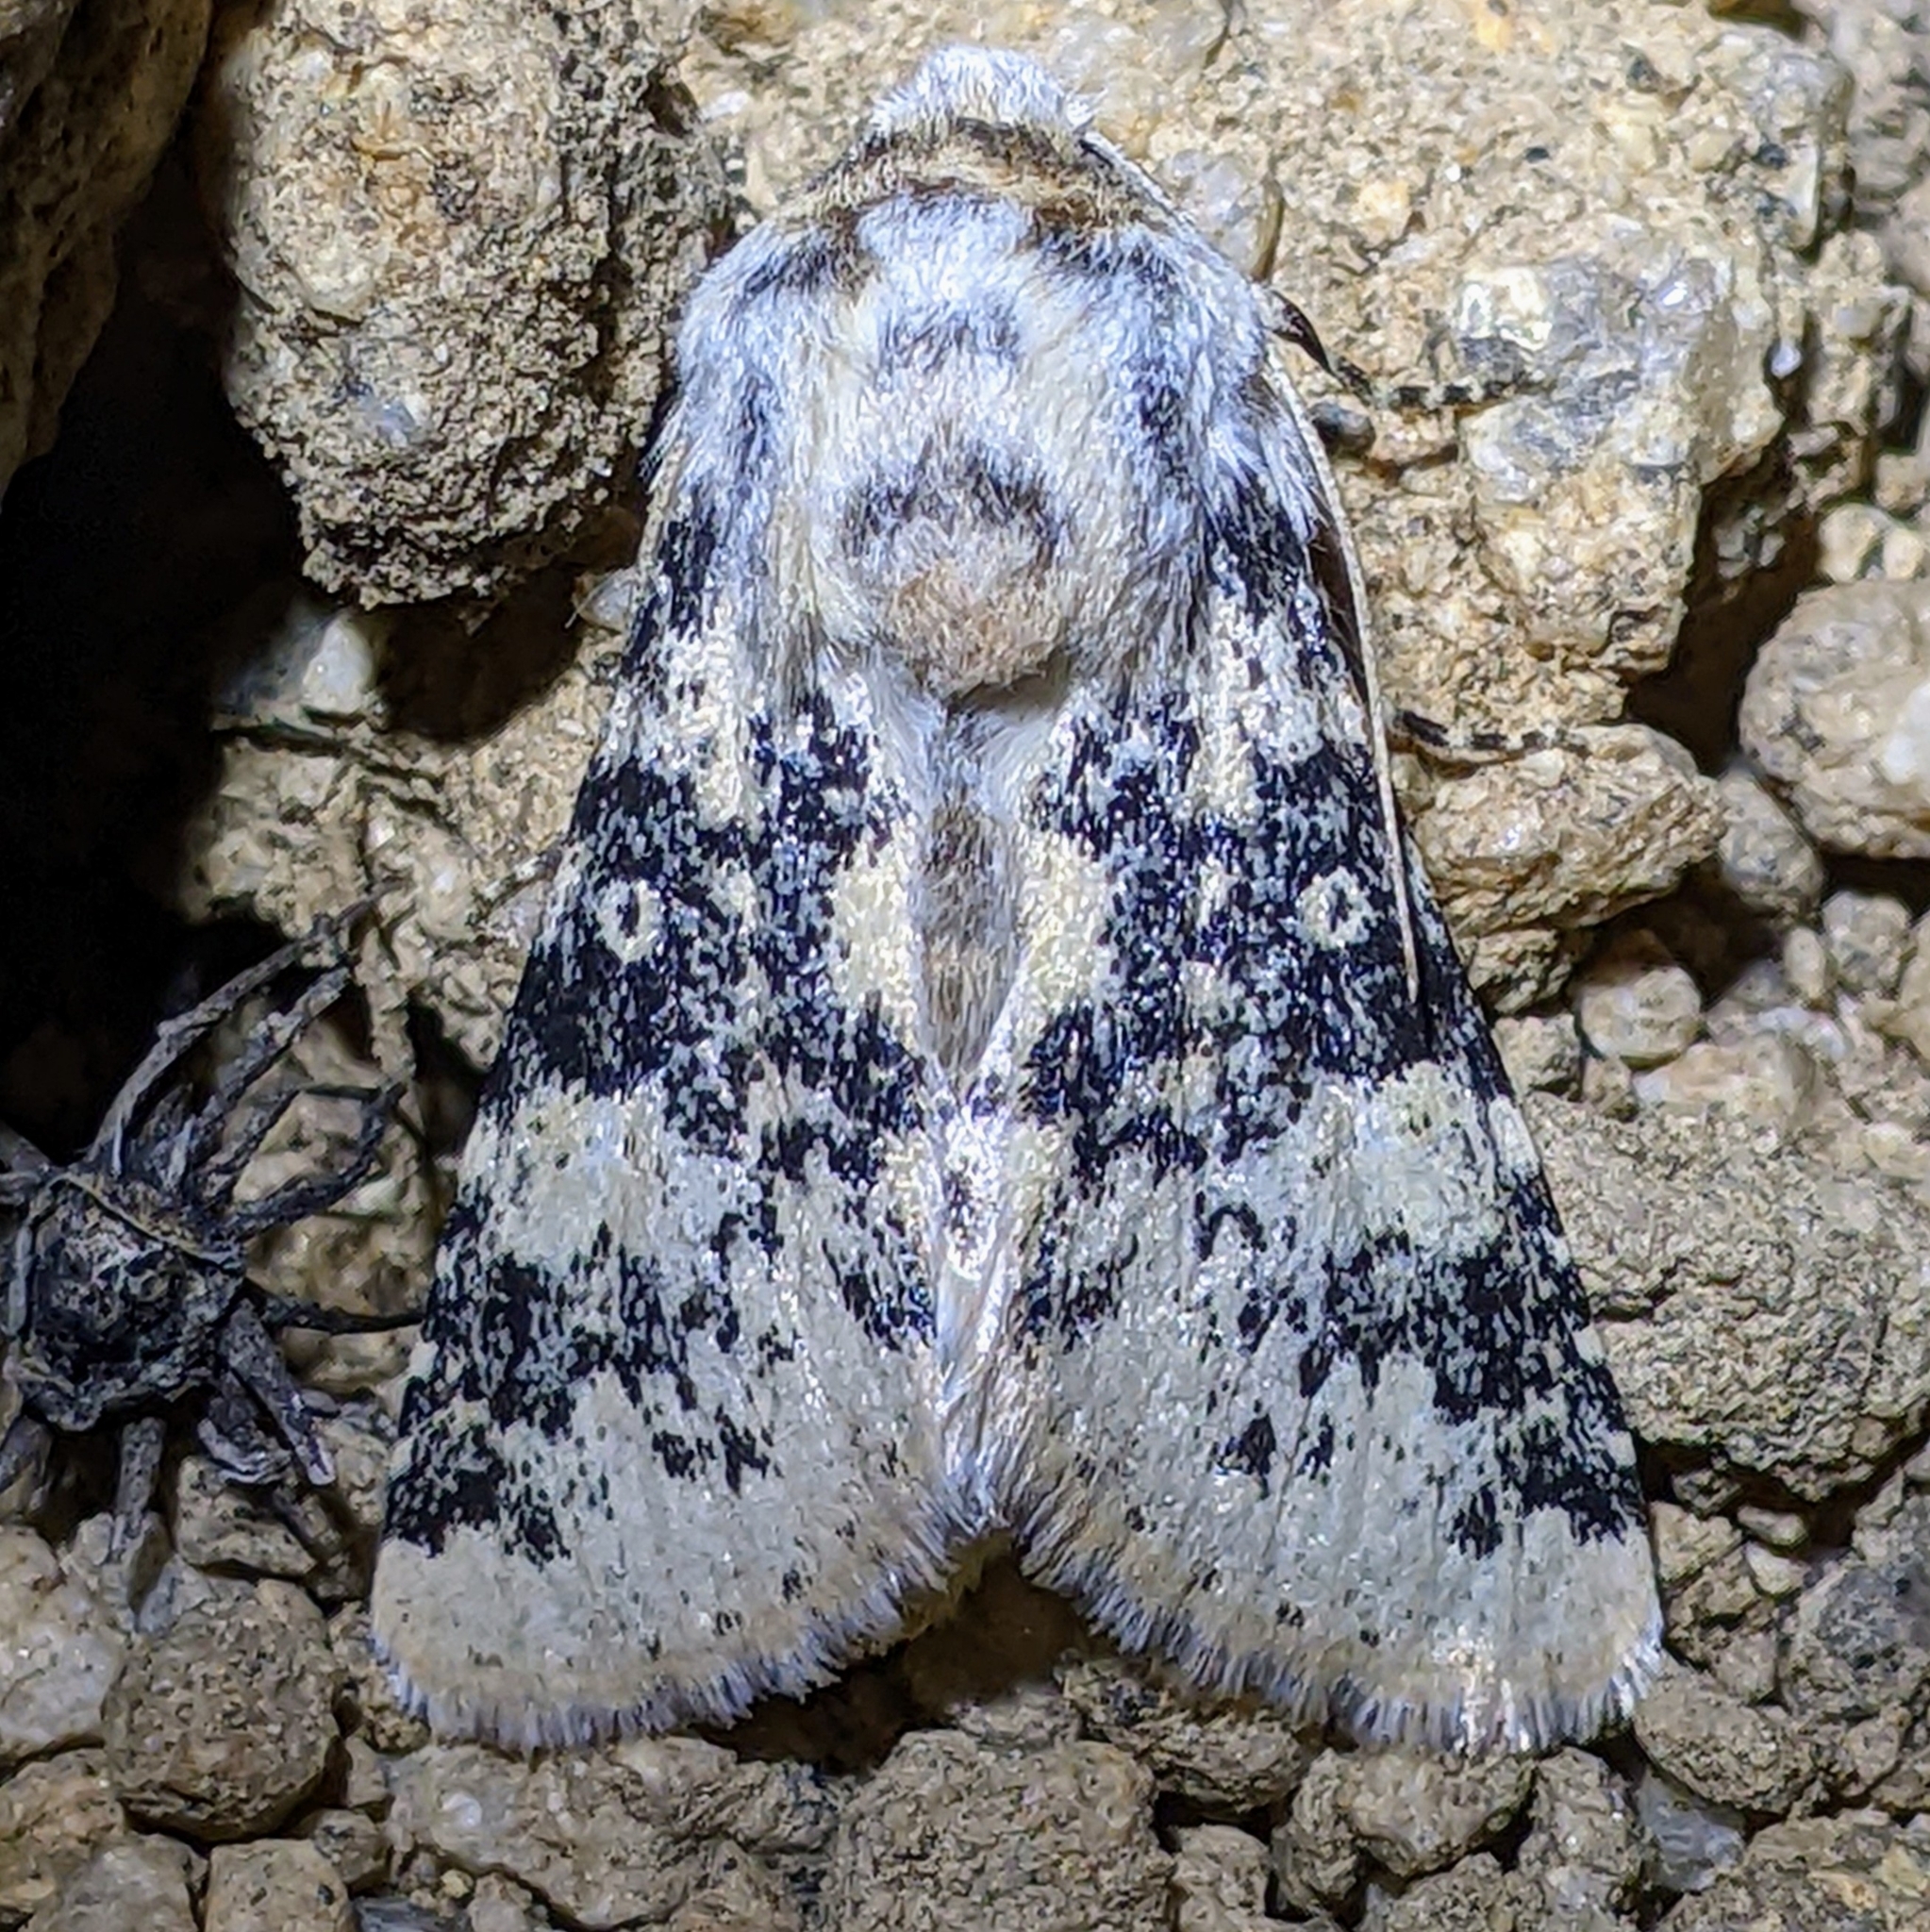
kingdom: Animalia
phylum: Arthropoda
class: Insecta
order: Lepidoptera
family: Noctuidae
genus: Unciella
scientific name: Unciella primula
